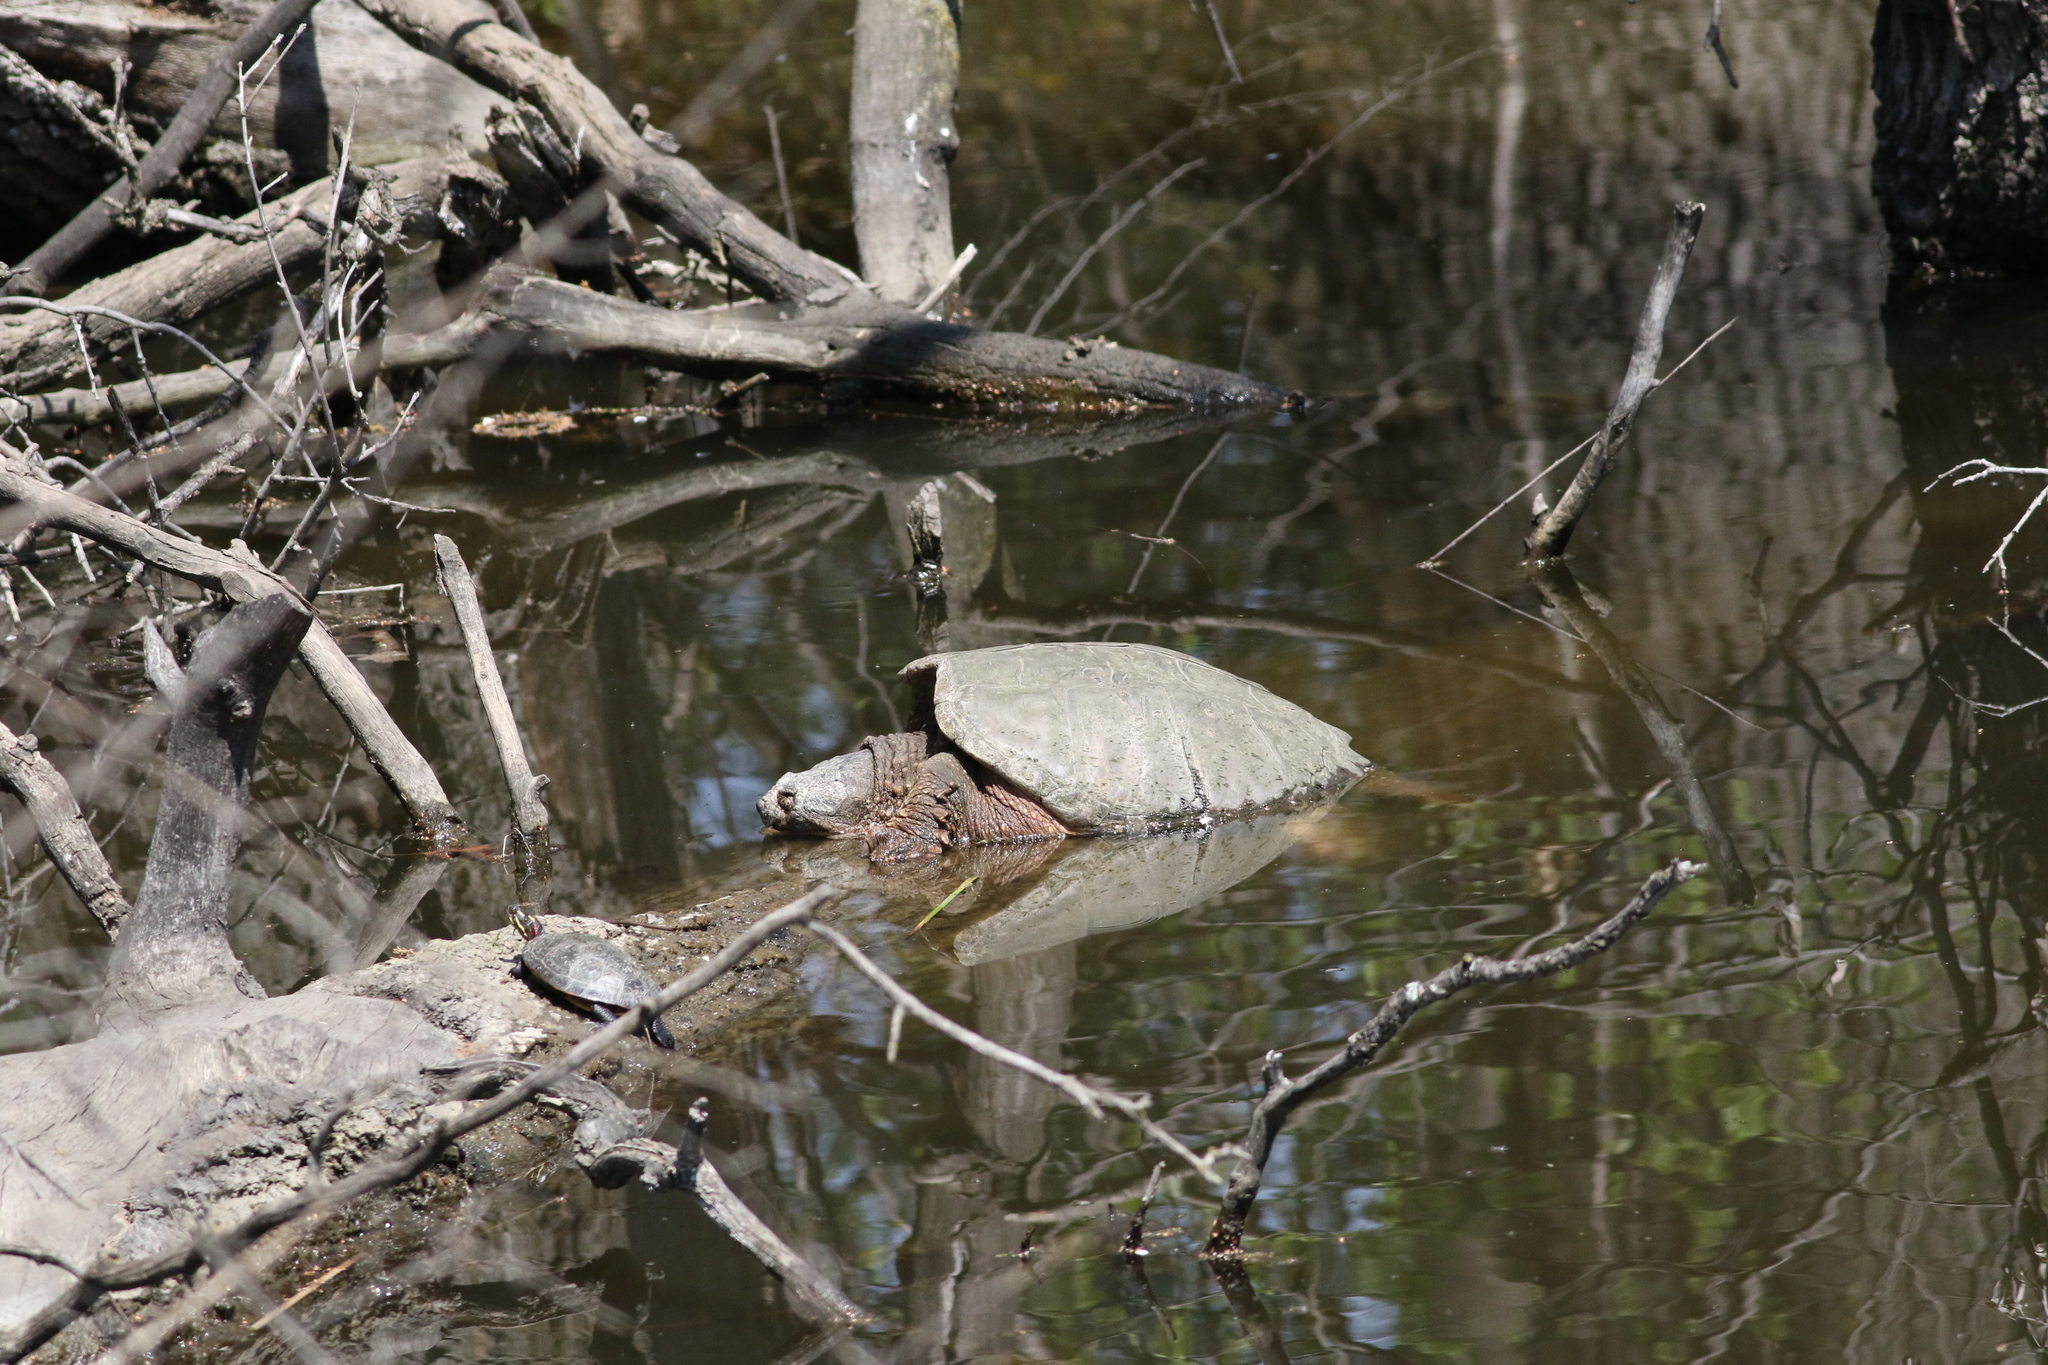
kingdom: Animalia
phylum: Chordata
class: Testudines
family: Chelydridae
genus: Chelydra
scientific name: Chelydra serpentina
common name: Common snapping turtle
